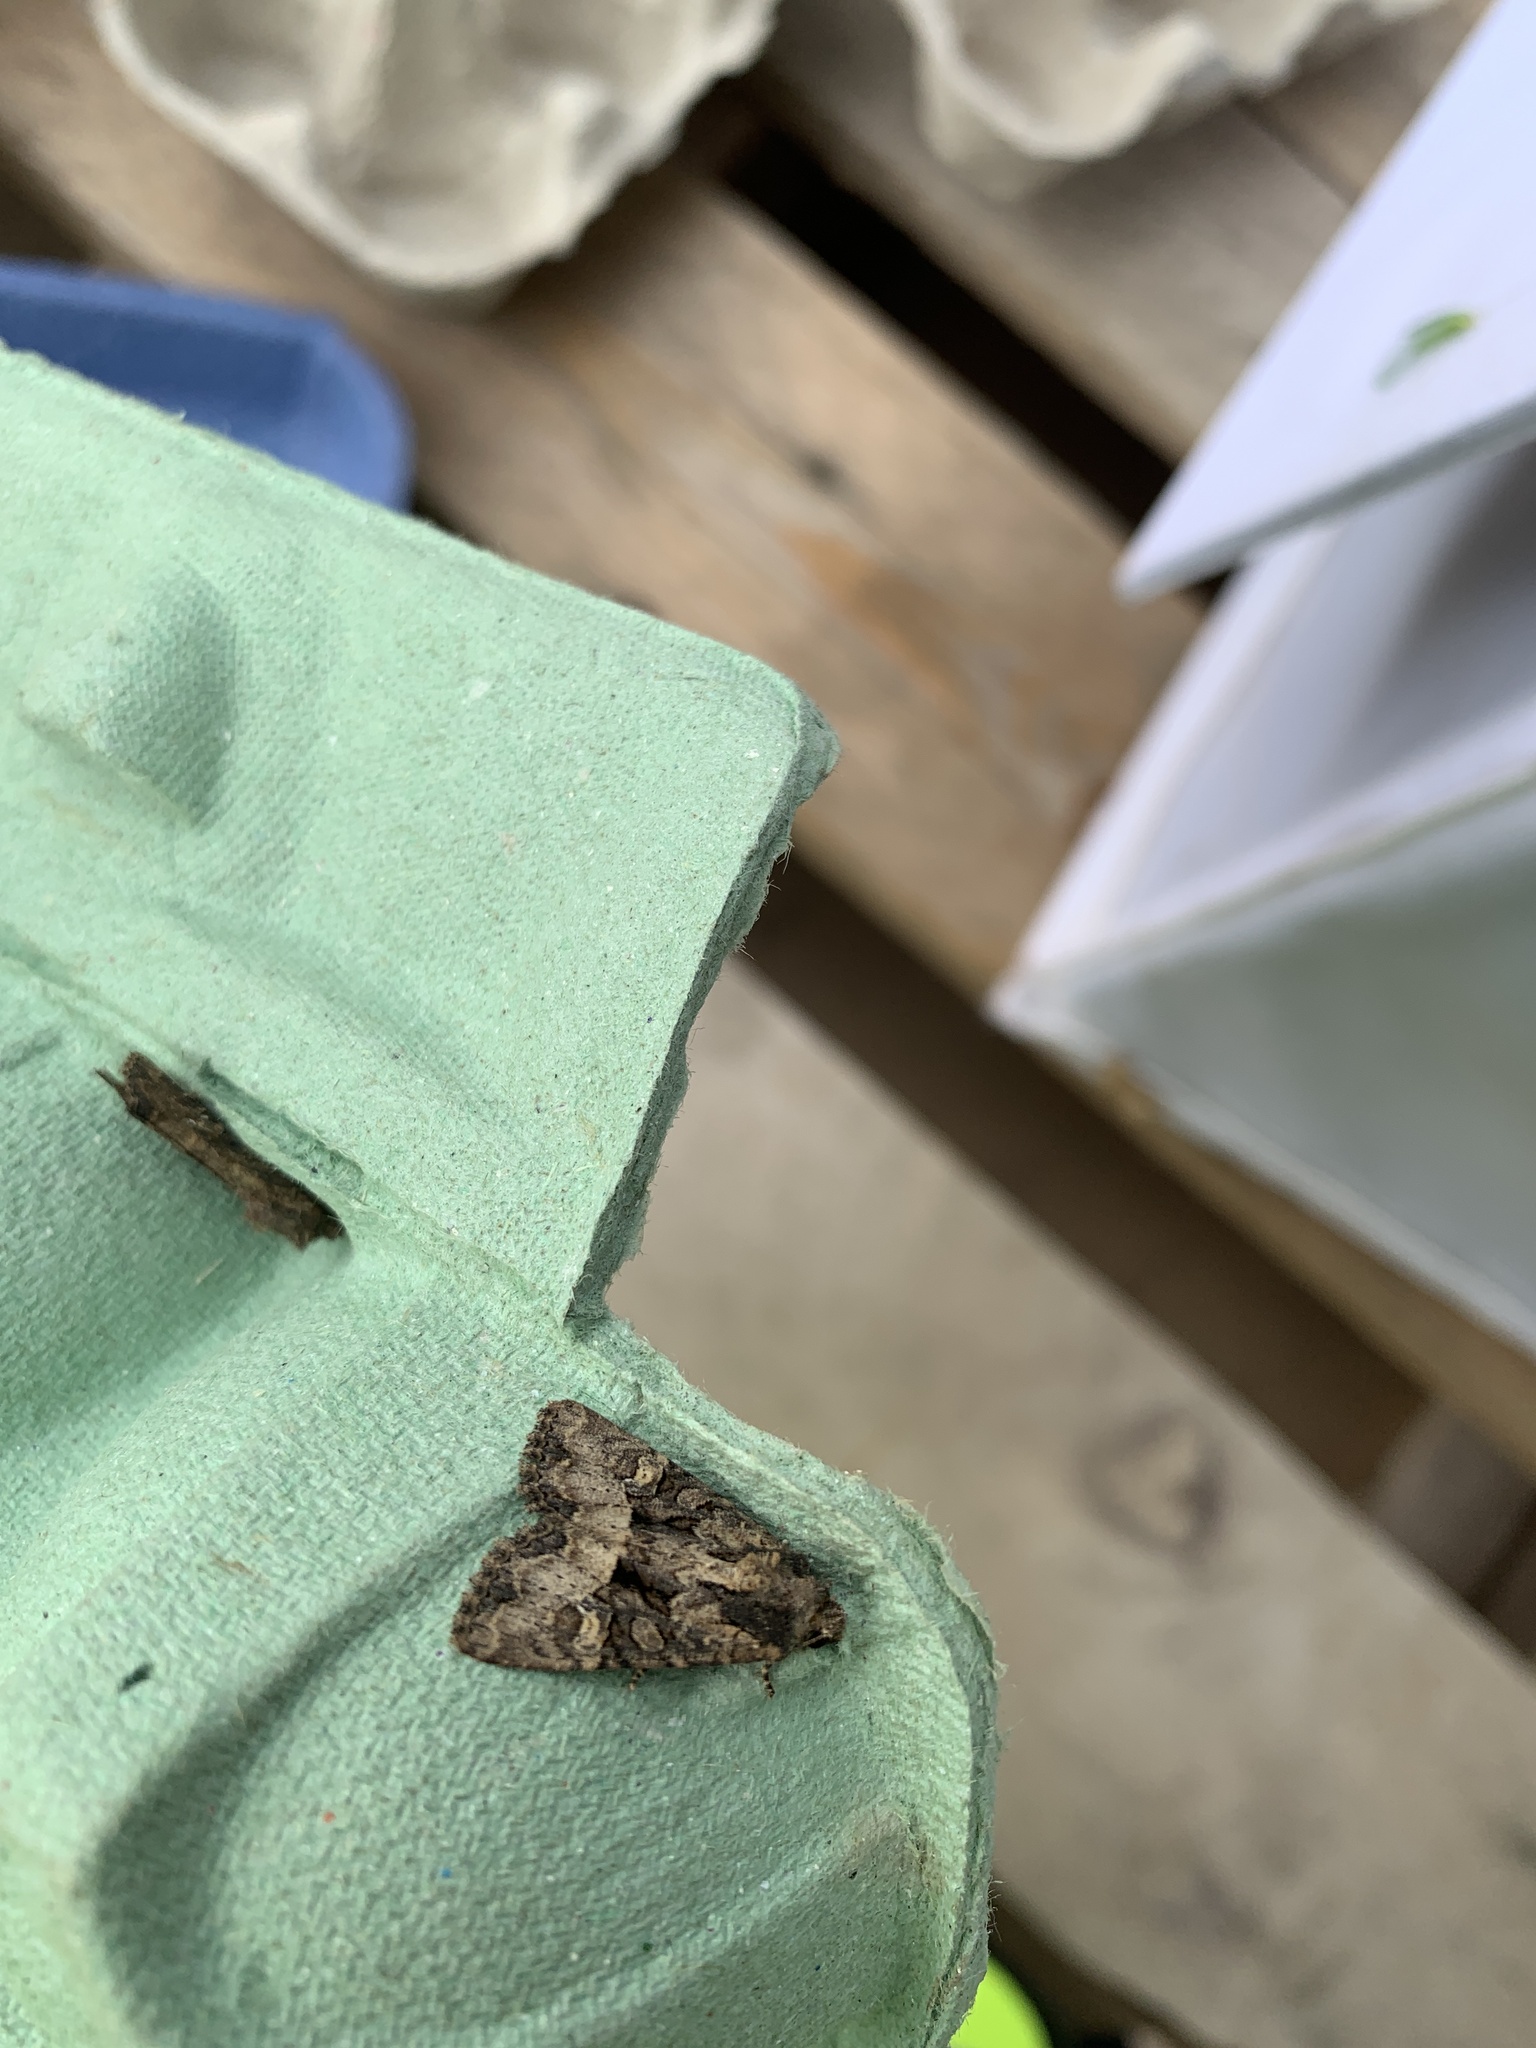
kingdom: Animalia
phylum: Arthropoda
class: Insecta
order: Lepidoptera
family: Noctuidae
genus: Mesapamea
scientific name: Mesapamea secalis
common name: Common rustic
